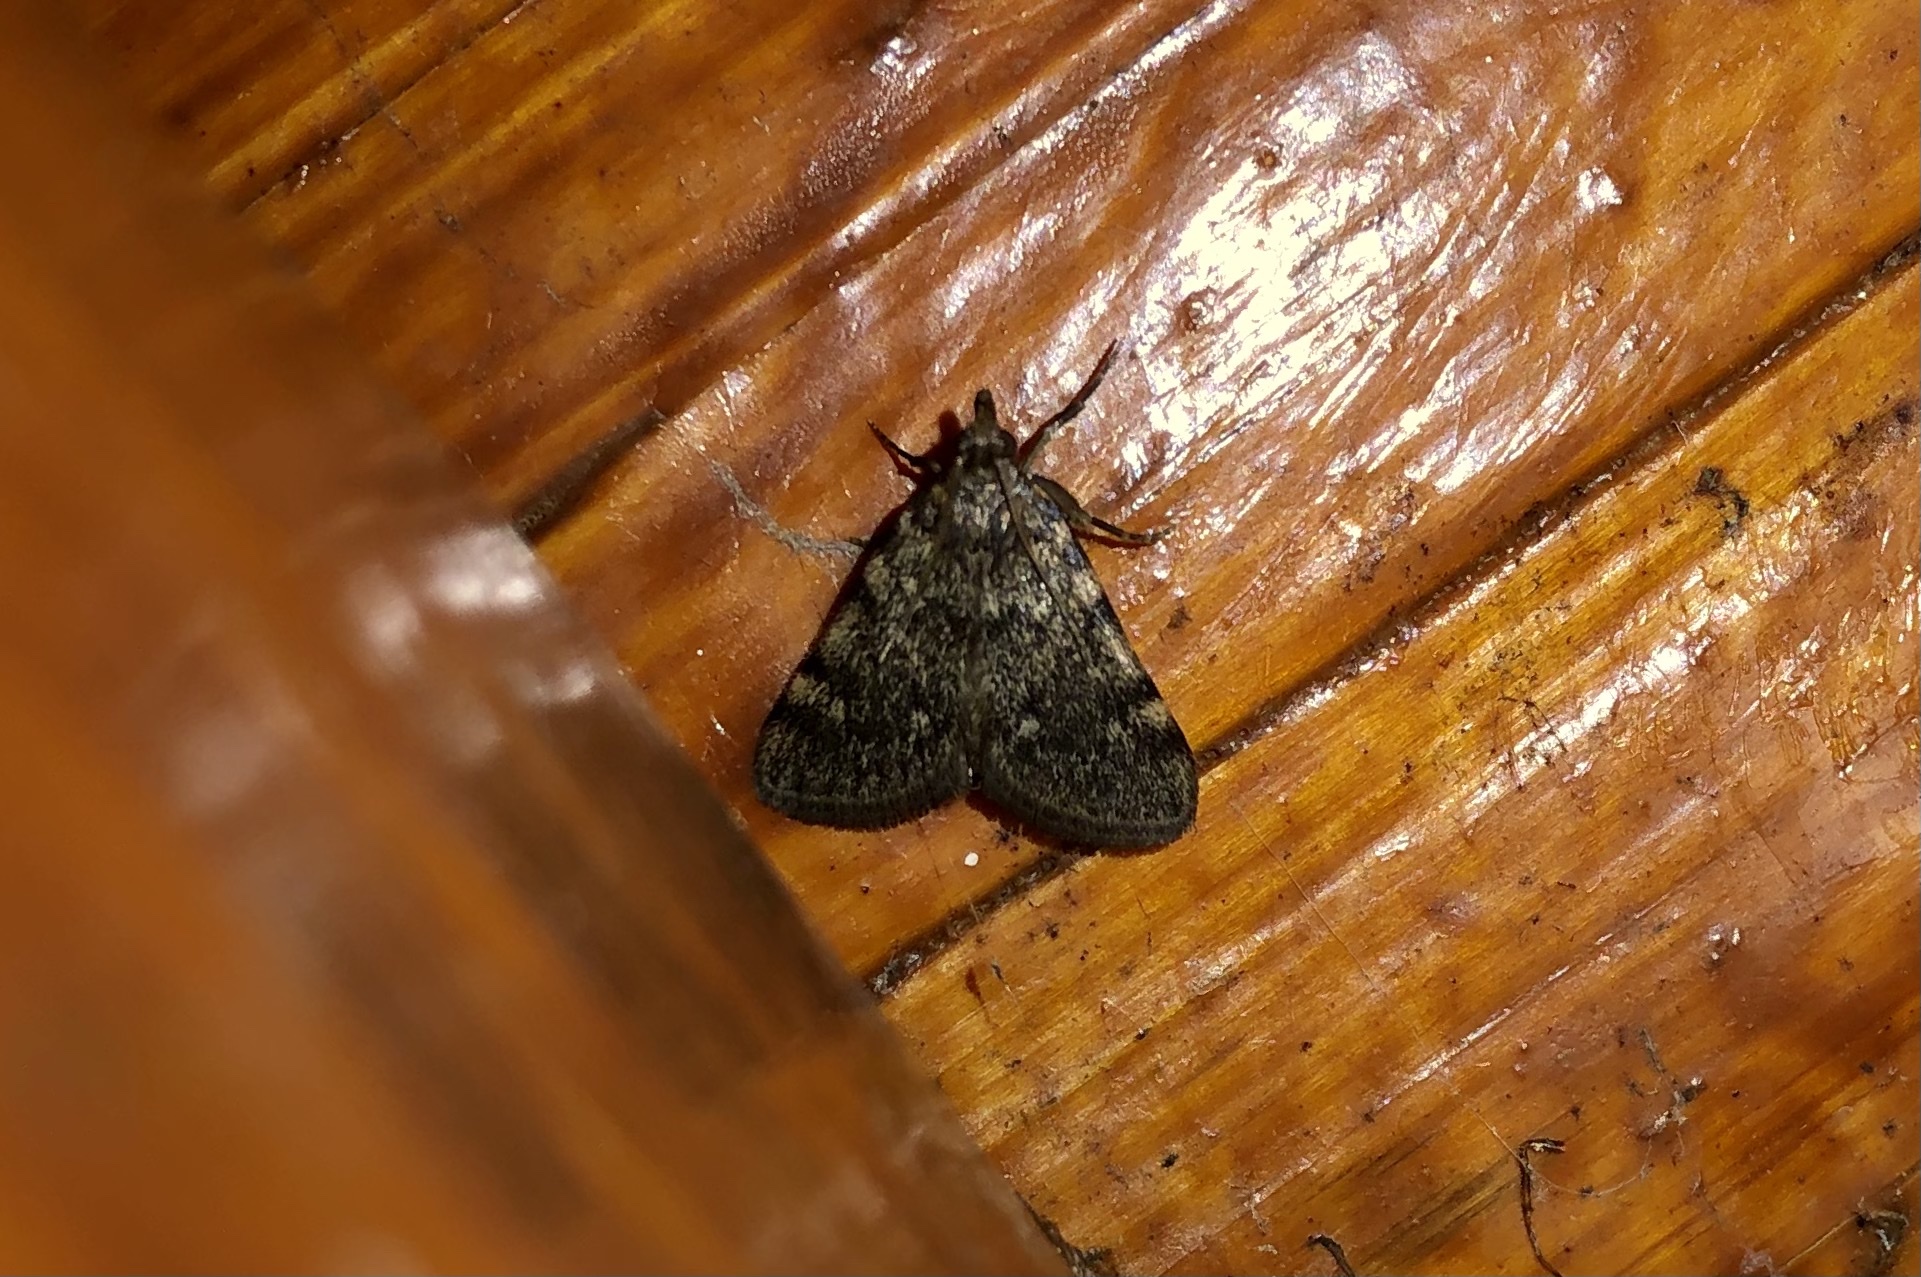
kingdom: Animalia
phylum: Arthropoda
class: Insecta
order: Lepidoptera
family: Pyralidae
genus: Aglossa
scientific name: Aglossa pinguinalis
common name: Large tabby
